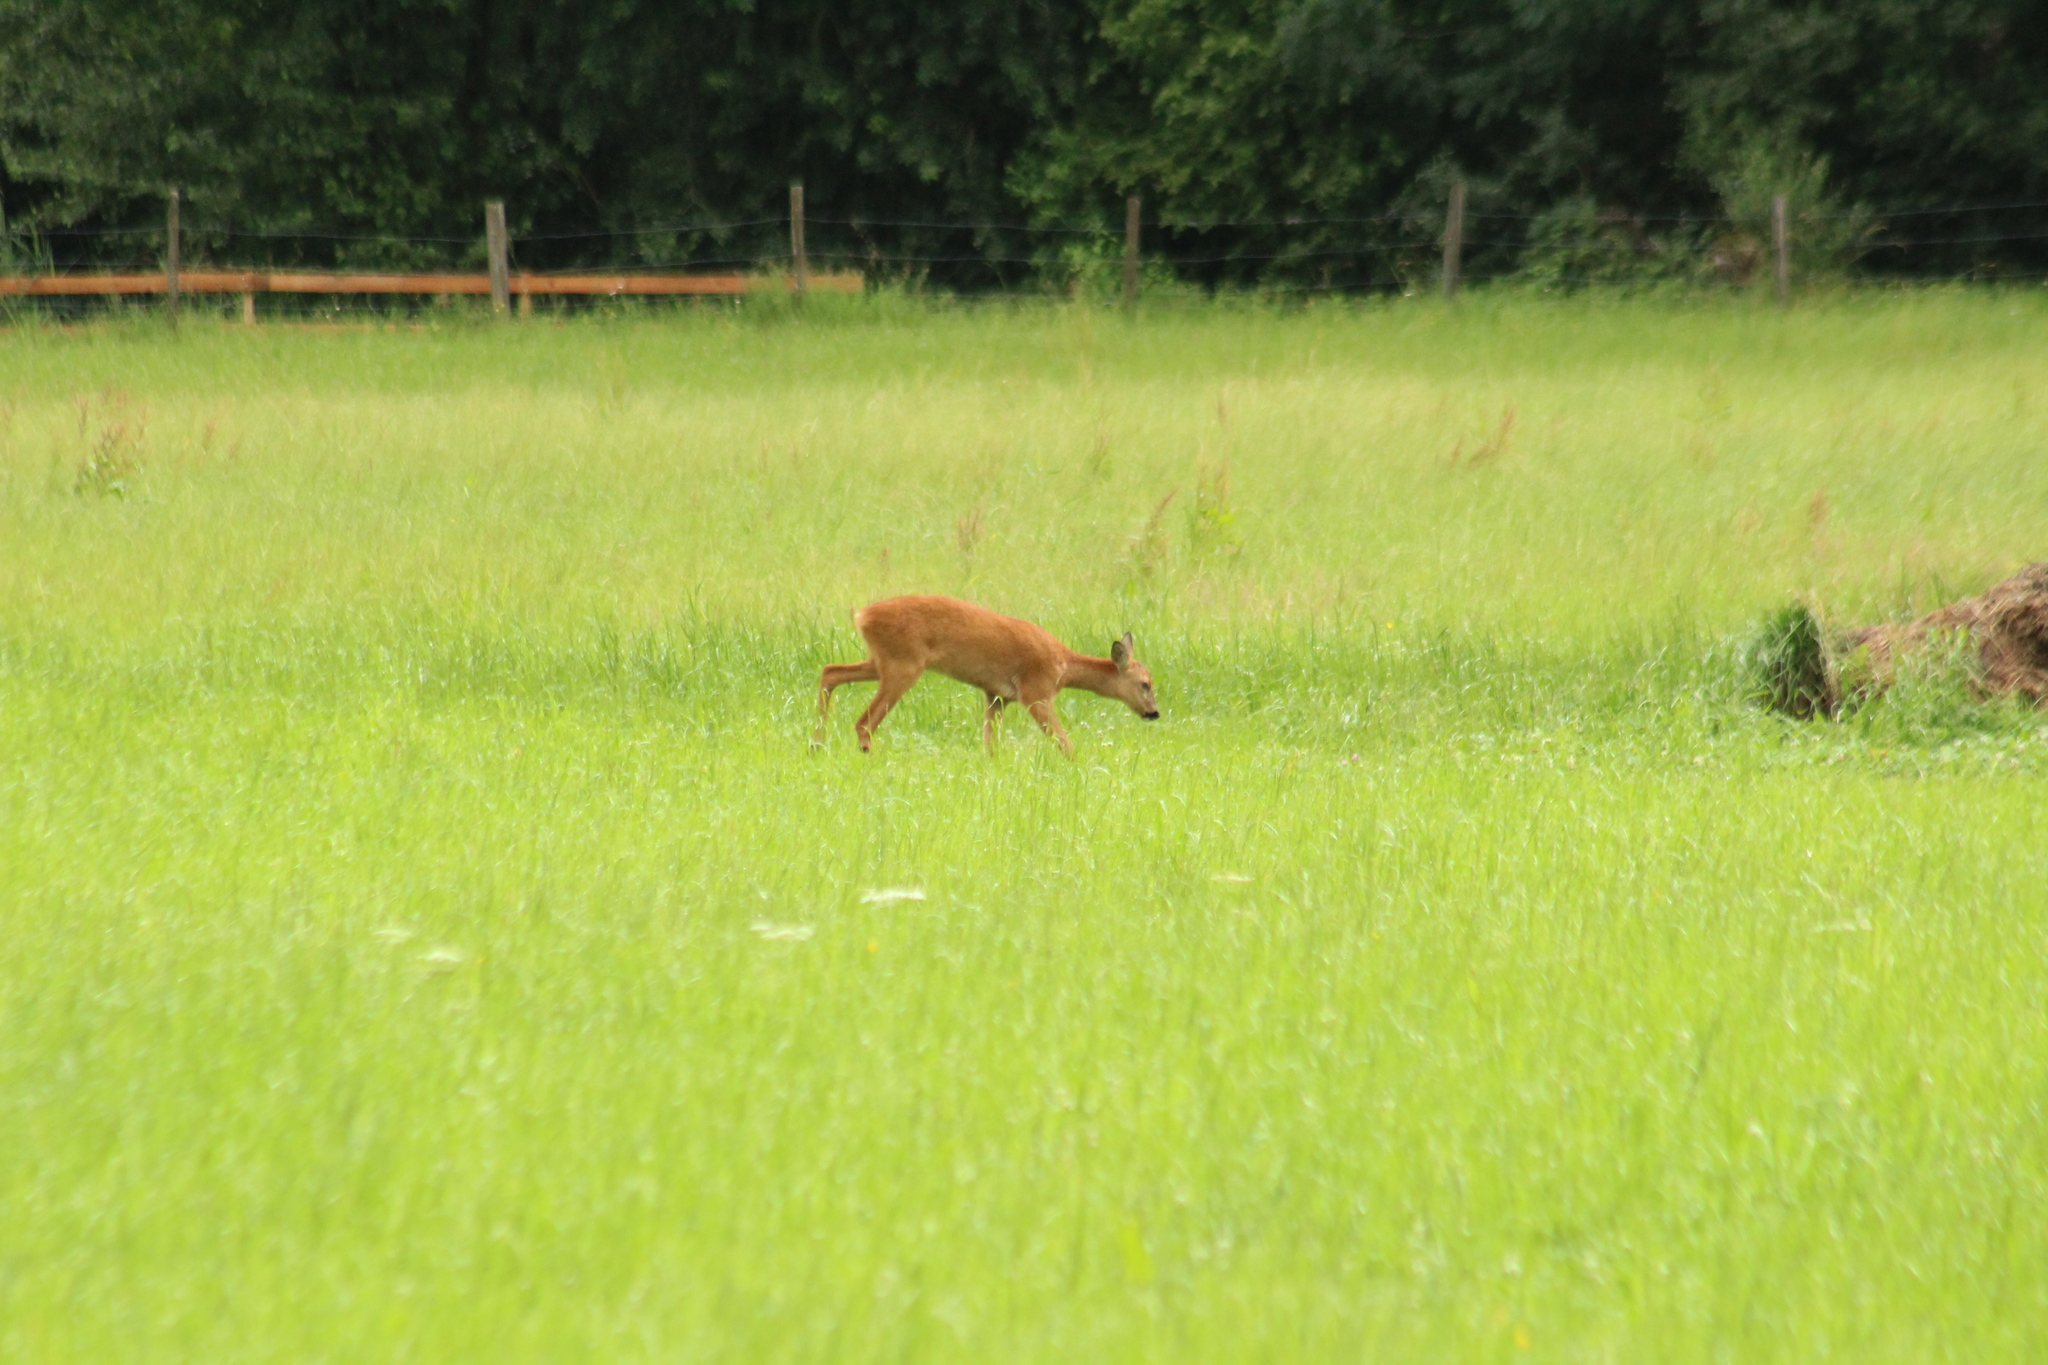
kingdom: Animalia
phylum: Chordata
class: Mammalia
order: Artiodactyla
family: Cervidae
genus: Capreolus
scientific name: Capreolus capreolus
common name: Western roe deer
